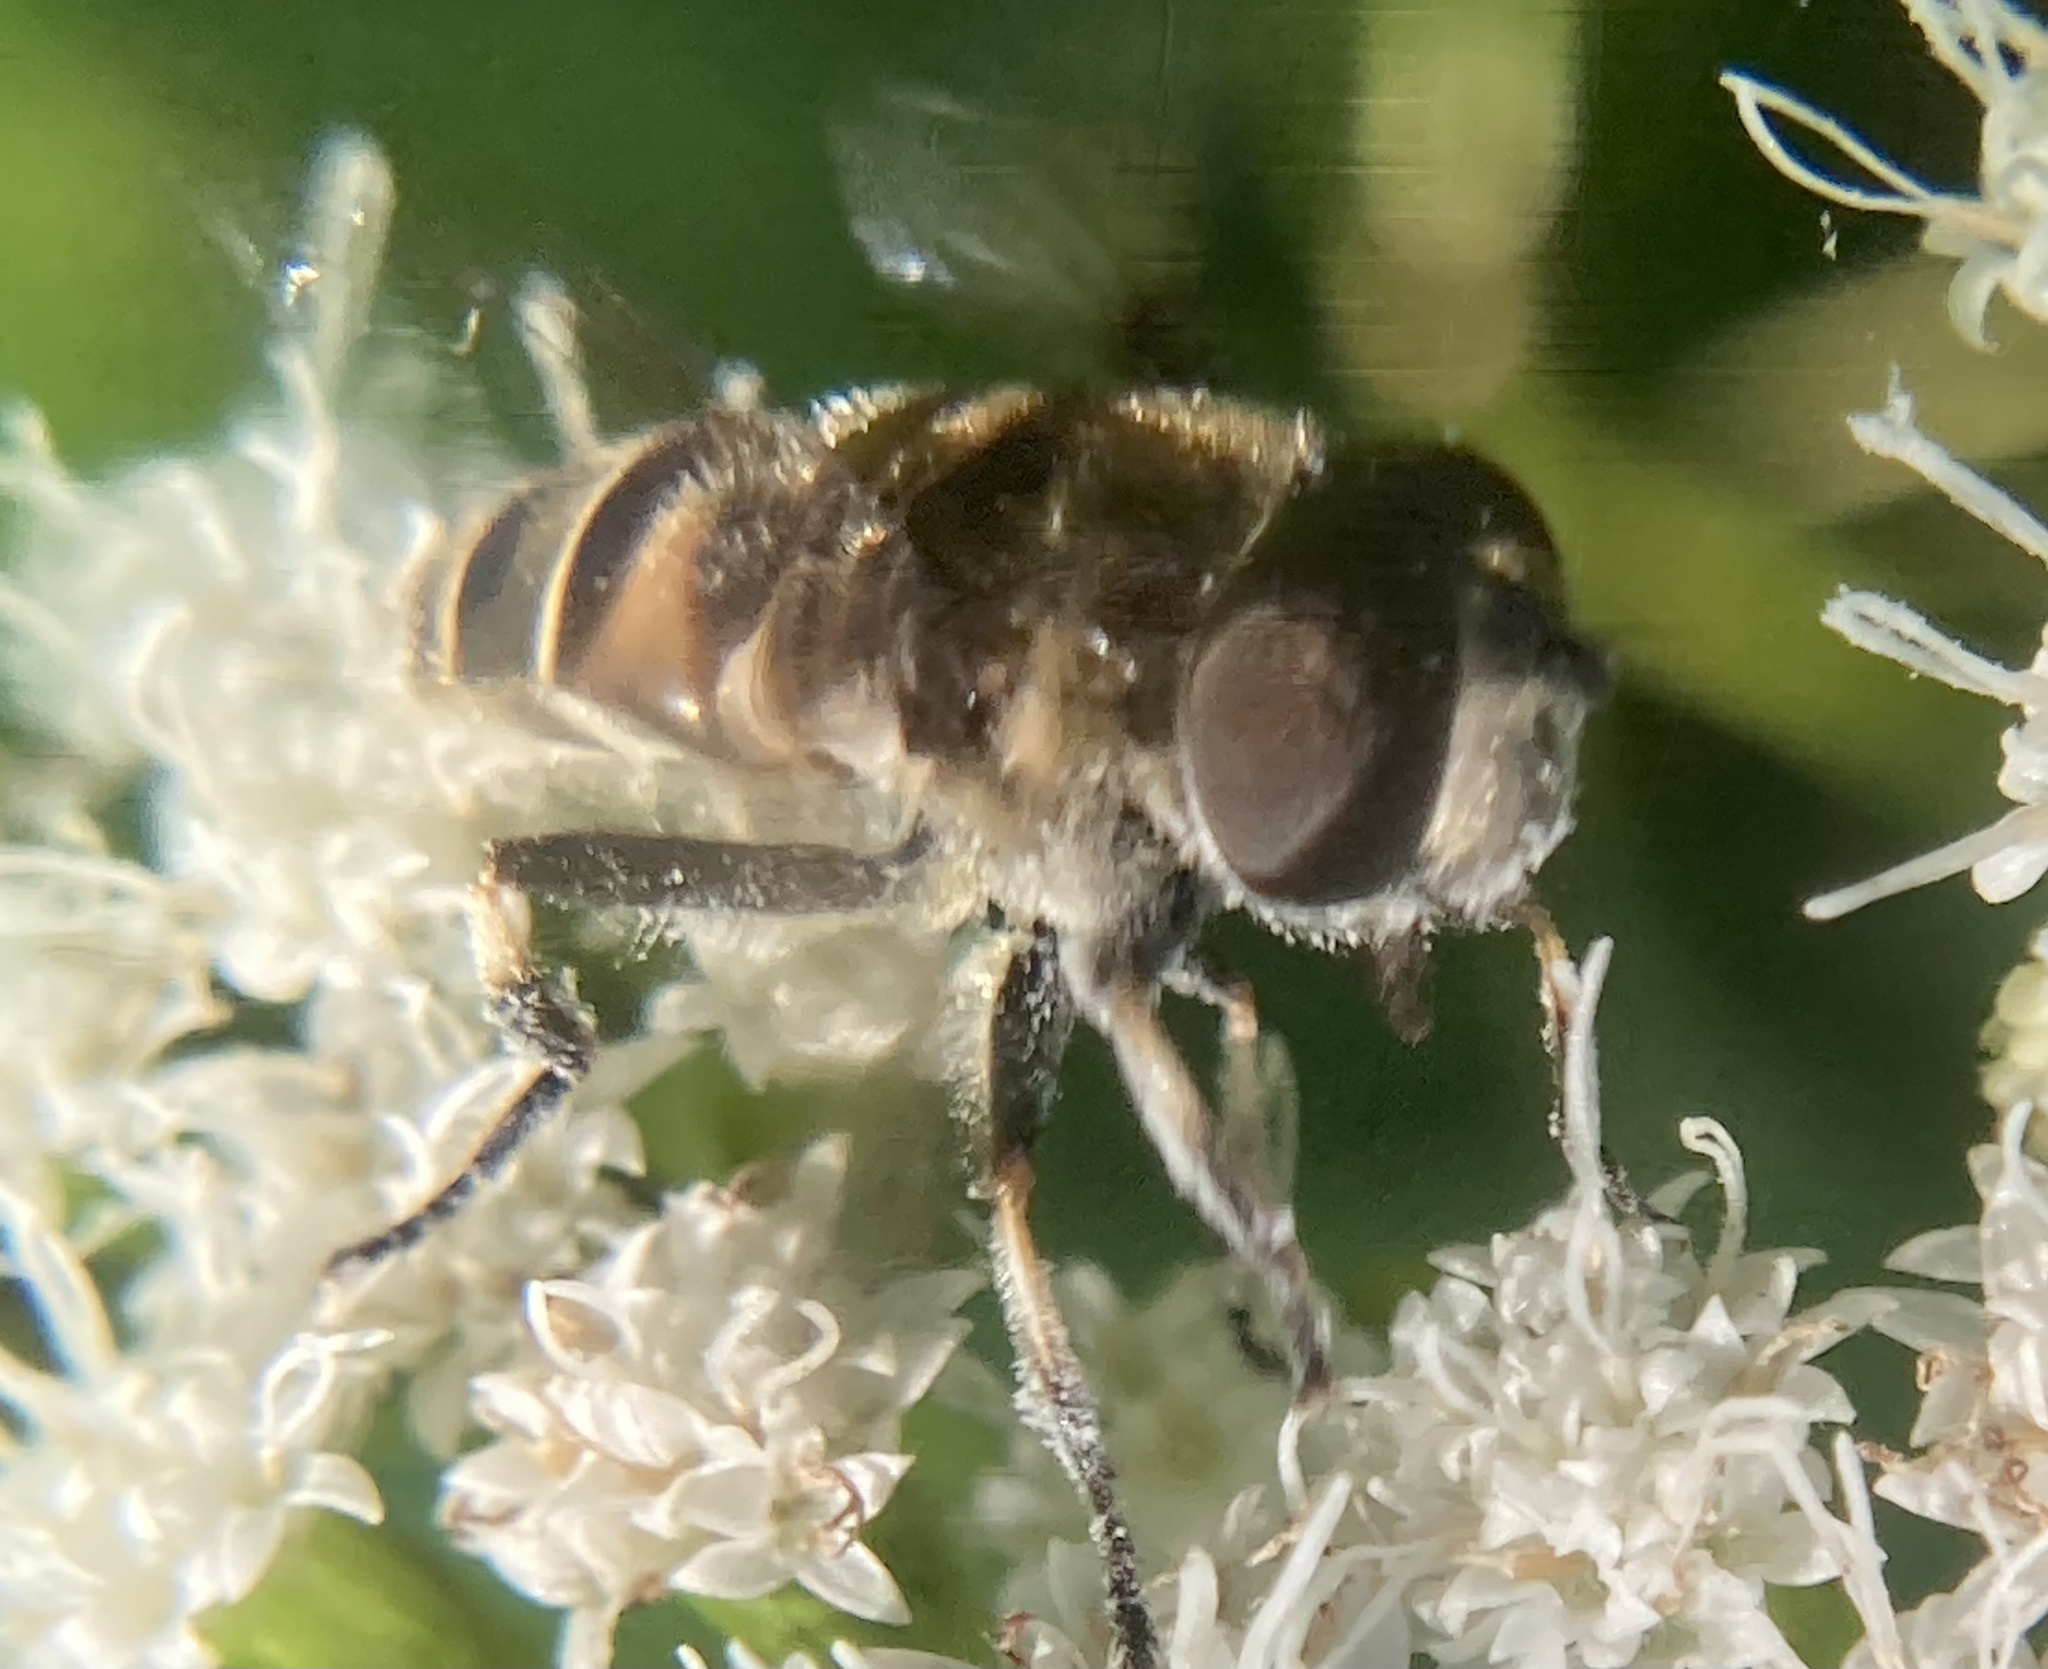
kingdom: Animalia
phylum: Arthropoda
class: Insecta
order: Diptera
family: Syrphidae
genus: Eristalis
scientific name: Eristalis dimidiata
